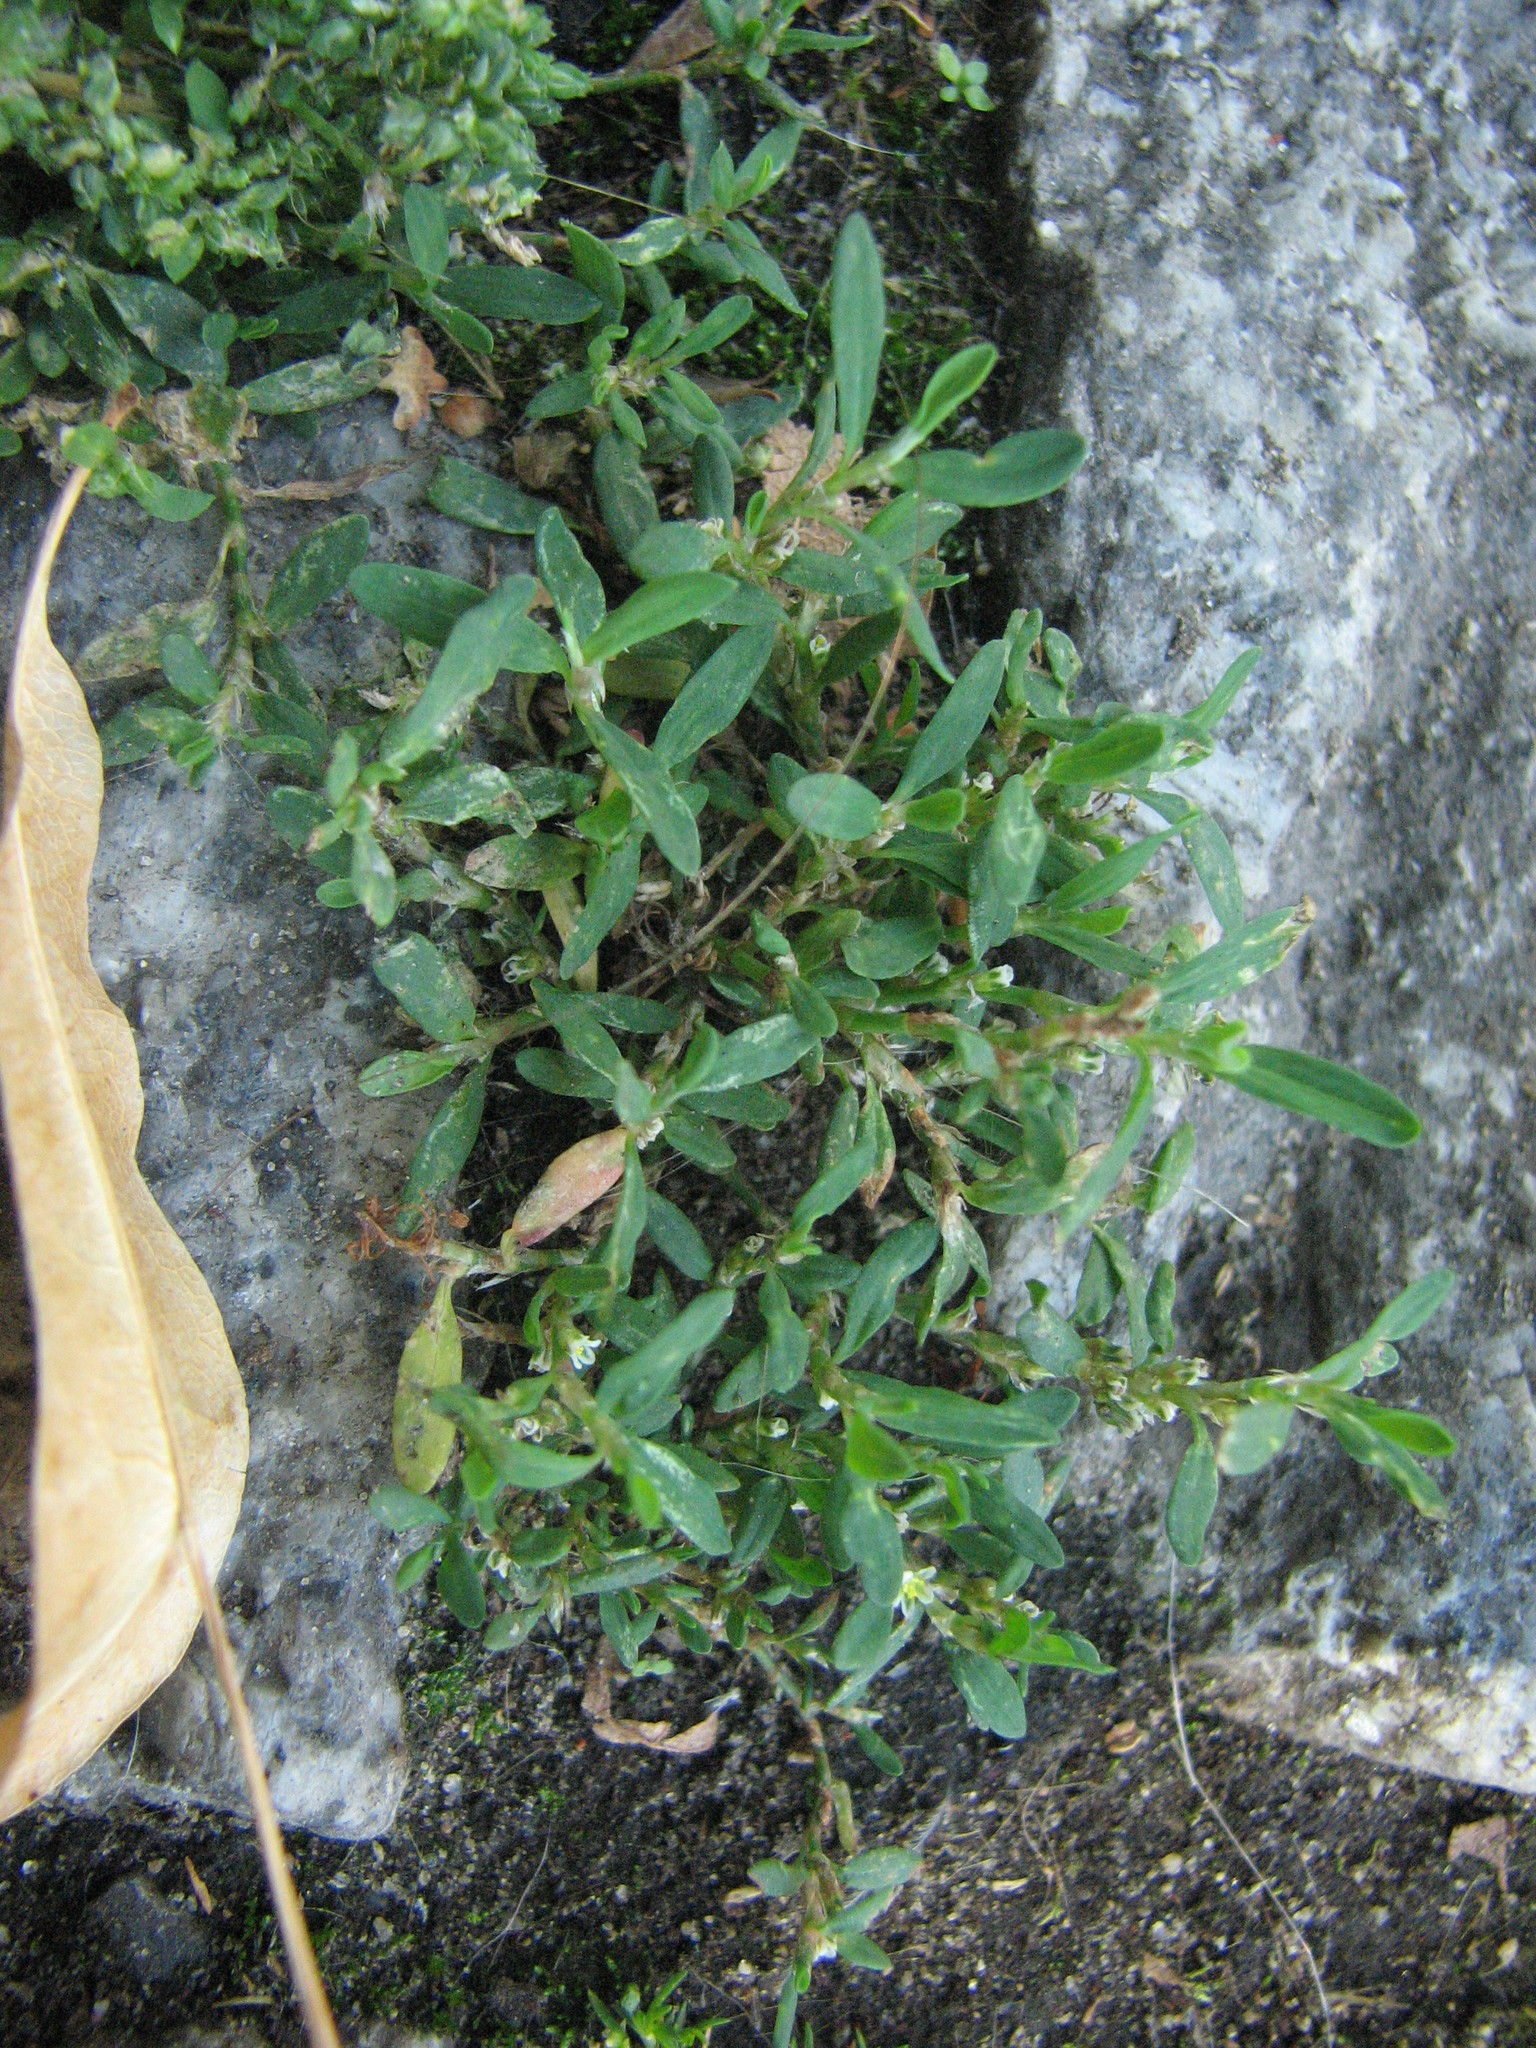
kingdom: Plantae
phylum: Tracheophyta
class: Magnoliopsida
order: Caryophyllales
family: Polygonaceae
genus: Polygonum
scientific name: Polygonum aviculare
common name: Prostrate knotweed
